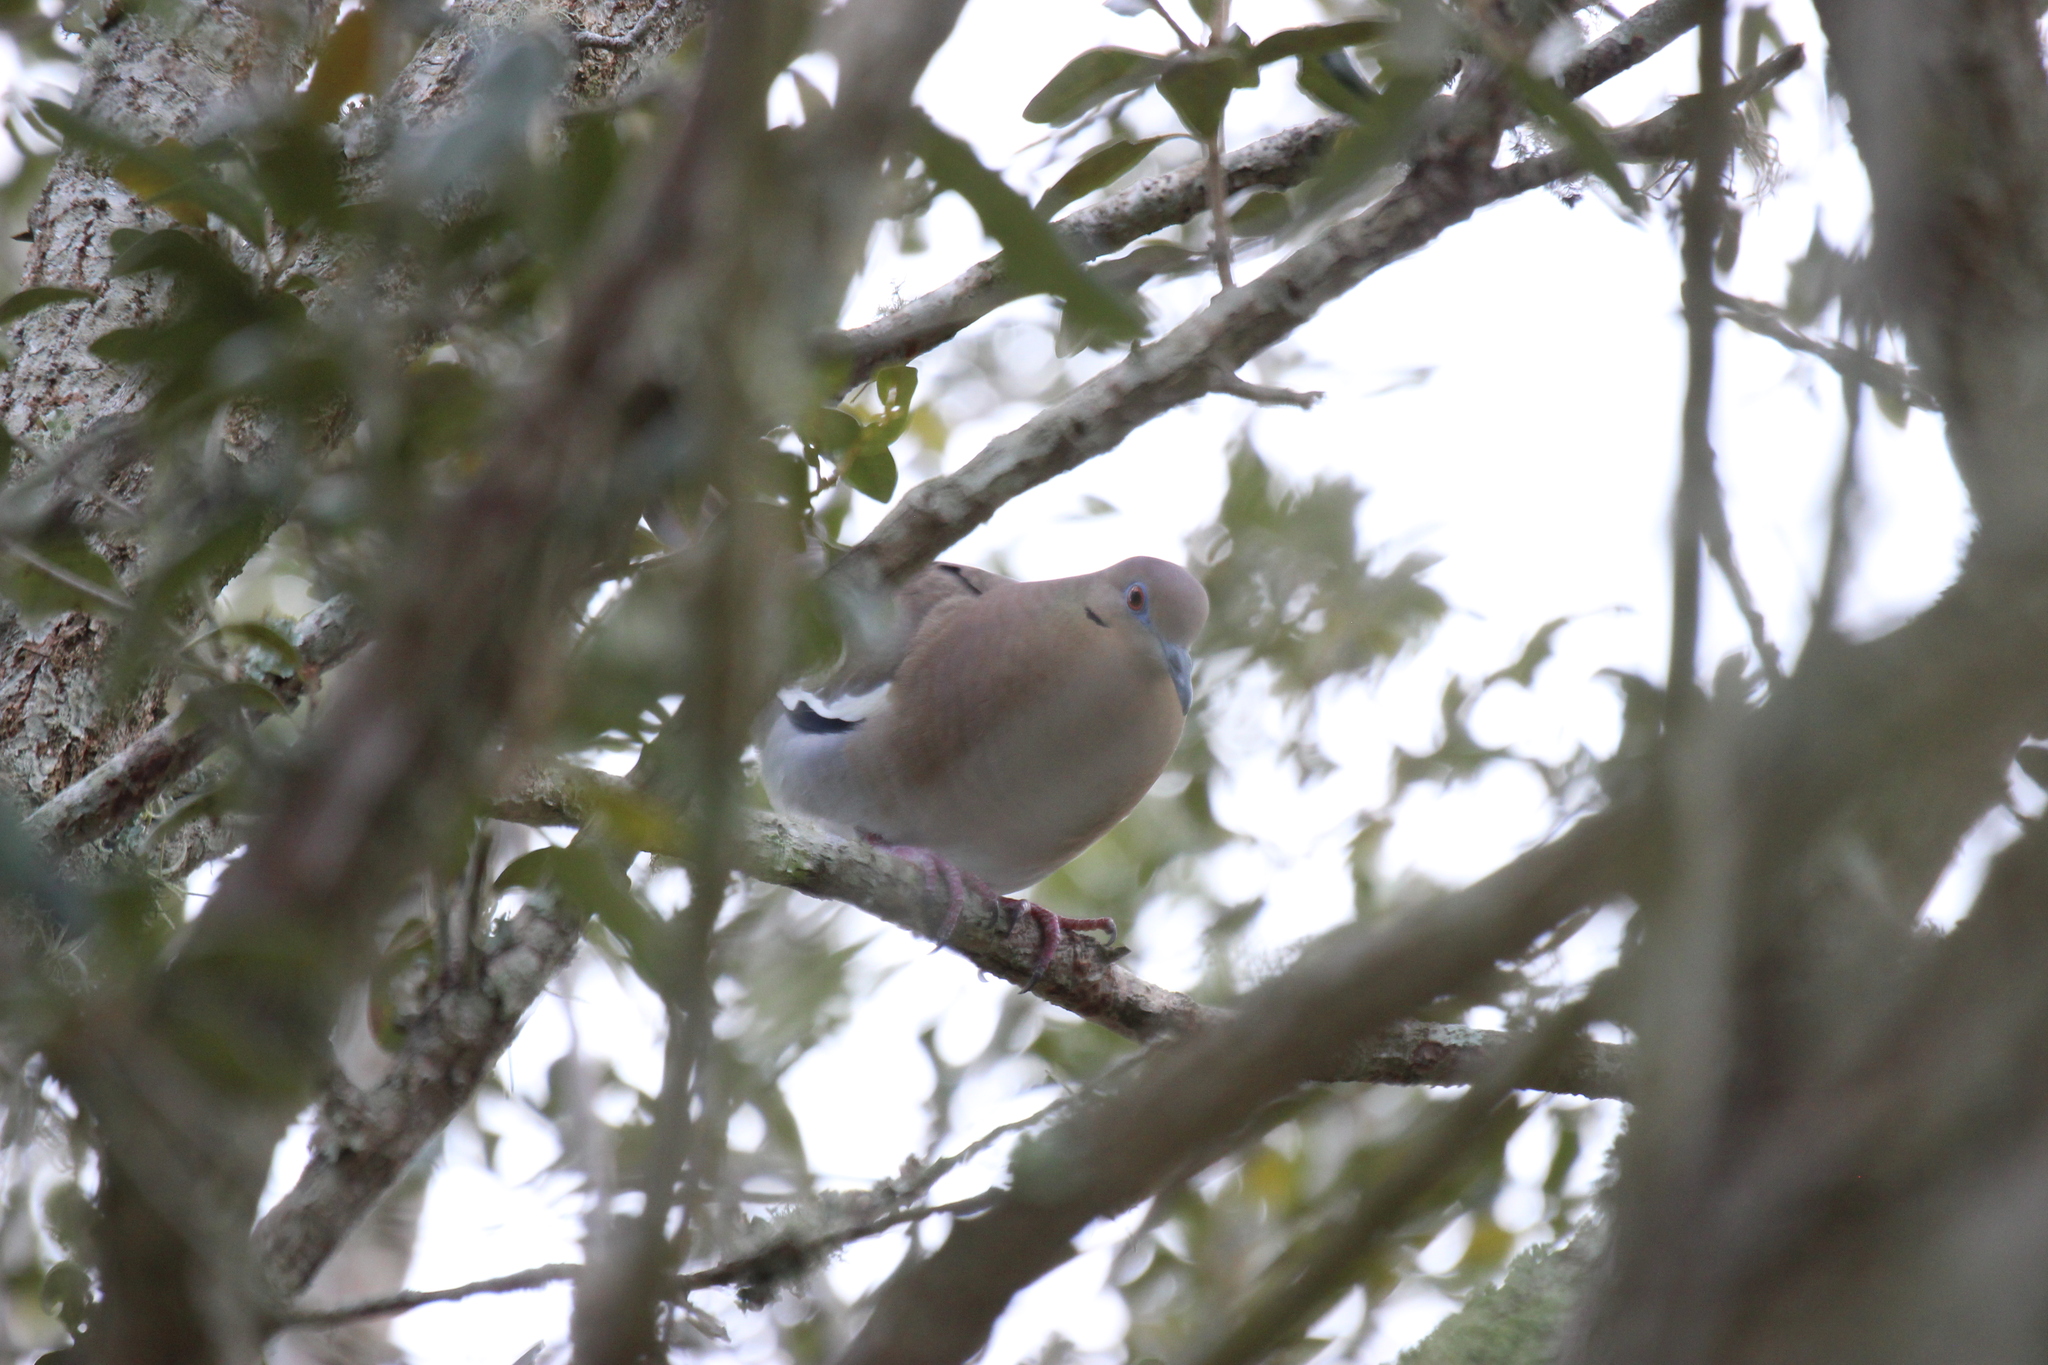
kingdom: Animalia
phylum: Chordata
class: Aves
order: Columbiformes
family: Columbidae
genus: Zenaida
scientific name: Zenaida asiatica
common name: White-winged dove
